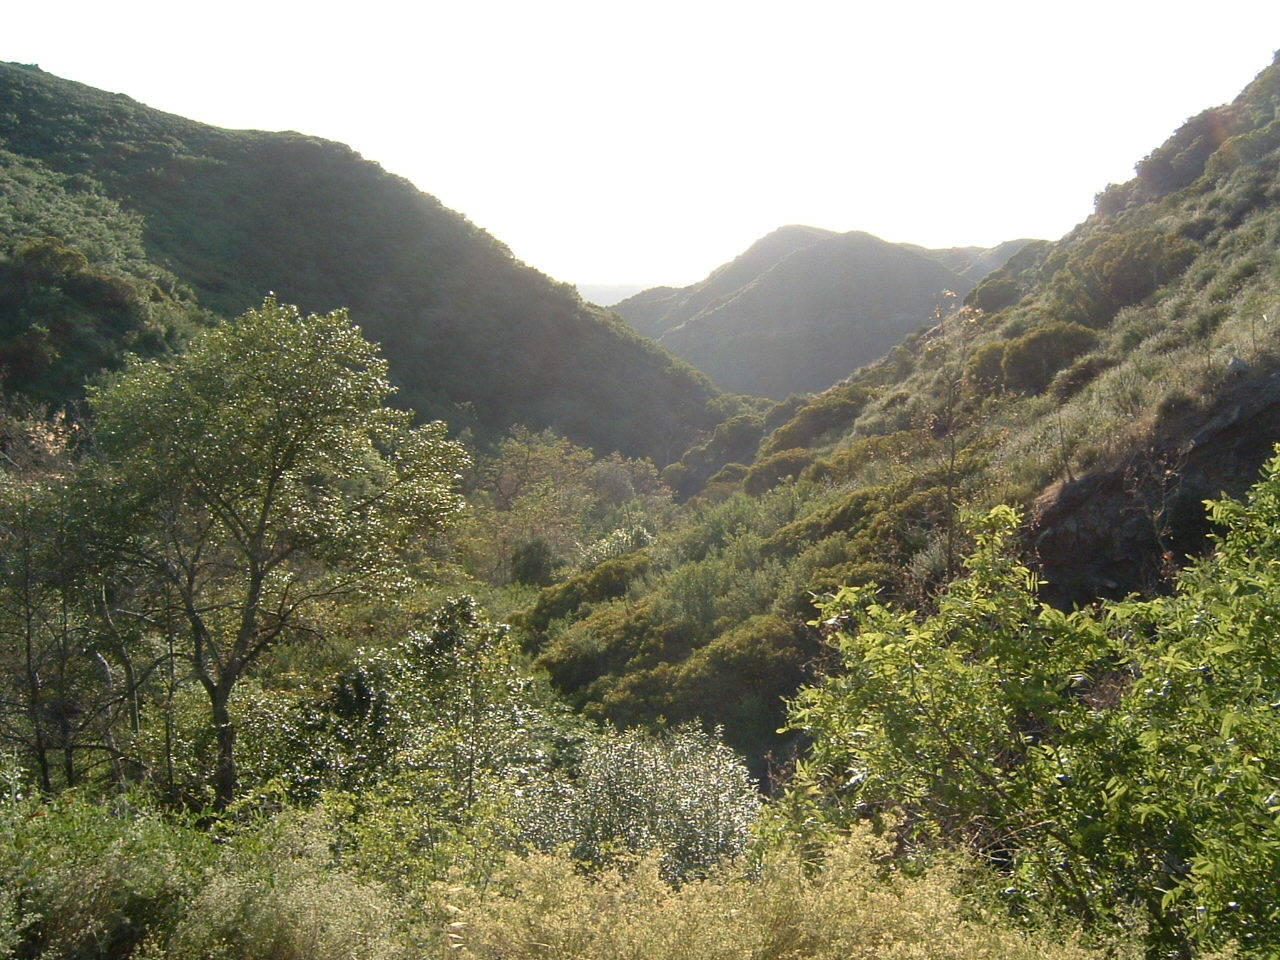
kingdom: Plantae
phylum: Tracheophyta
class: Magnoliopsida
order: Proteales
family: Platanaceae
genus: Platanus
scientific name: Platanus racemosa
